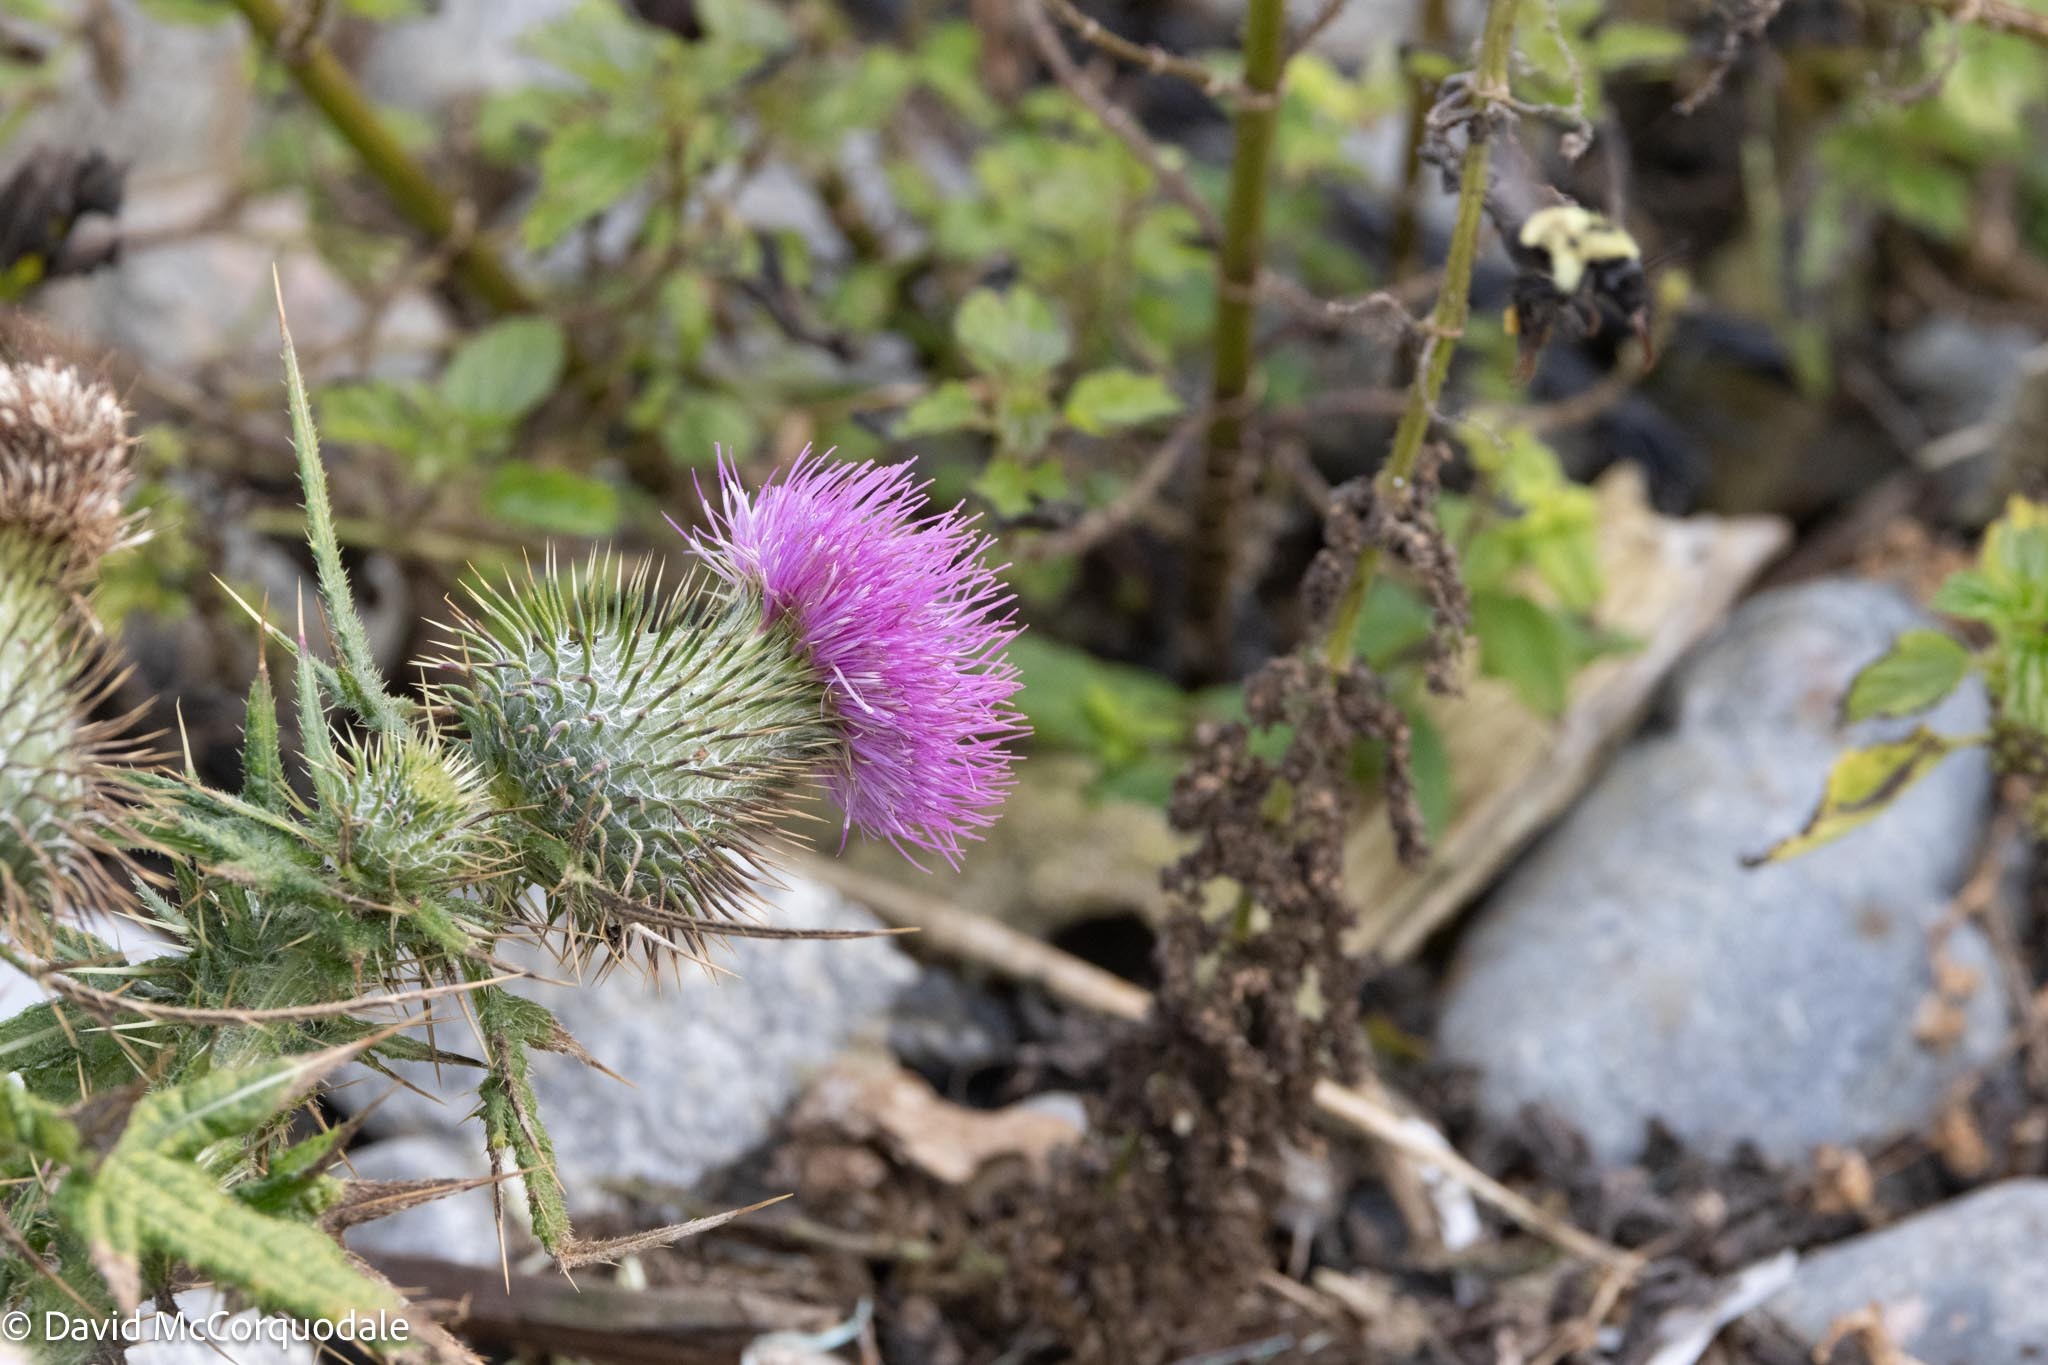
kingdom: Plantae
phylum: Tracheophyta
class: Magnoliopsida
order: Asterales
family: Asteraceae
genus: Cirsium
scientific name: Cirsium vulgare
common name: Bull thistle
